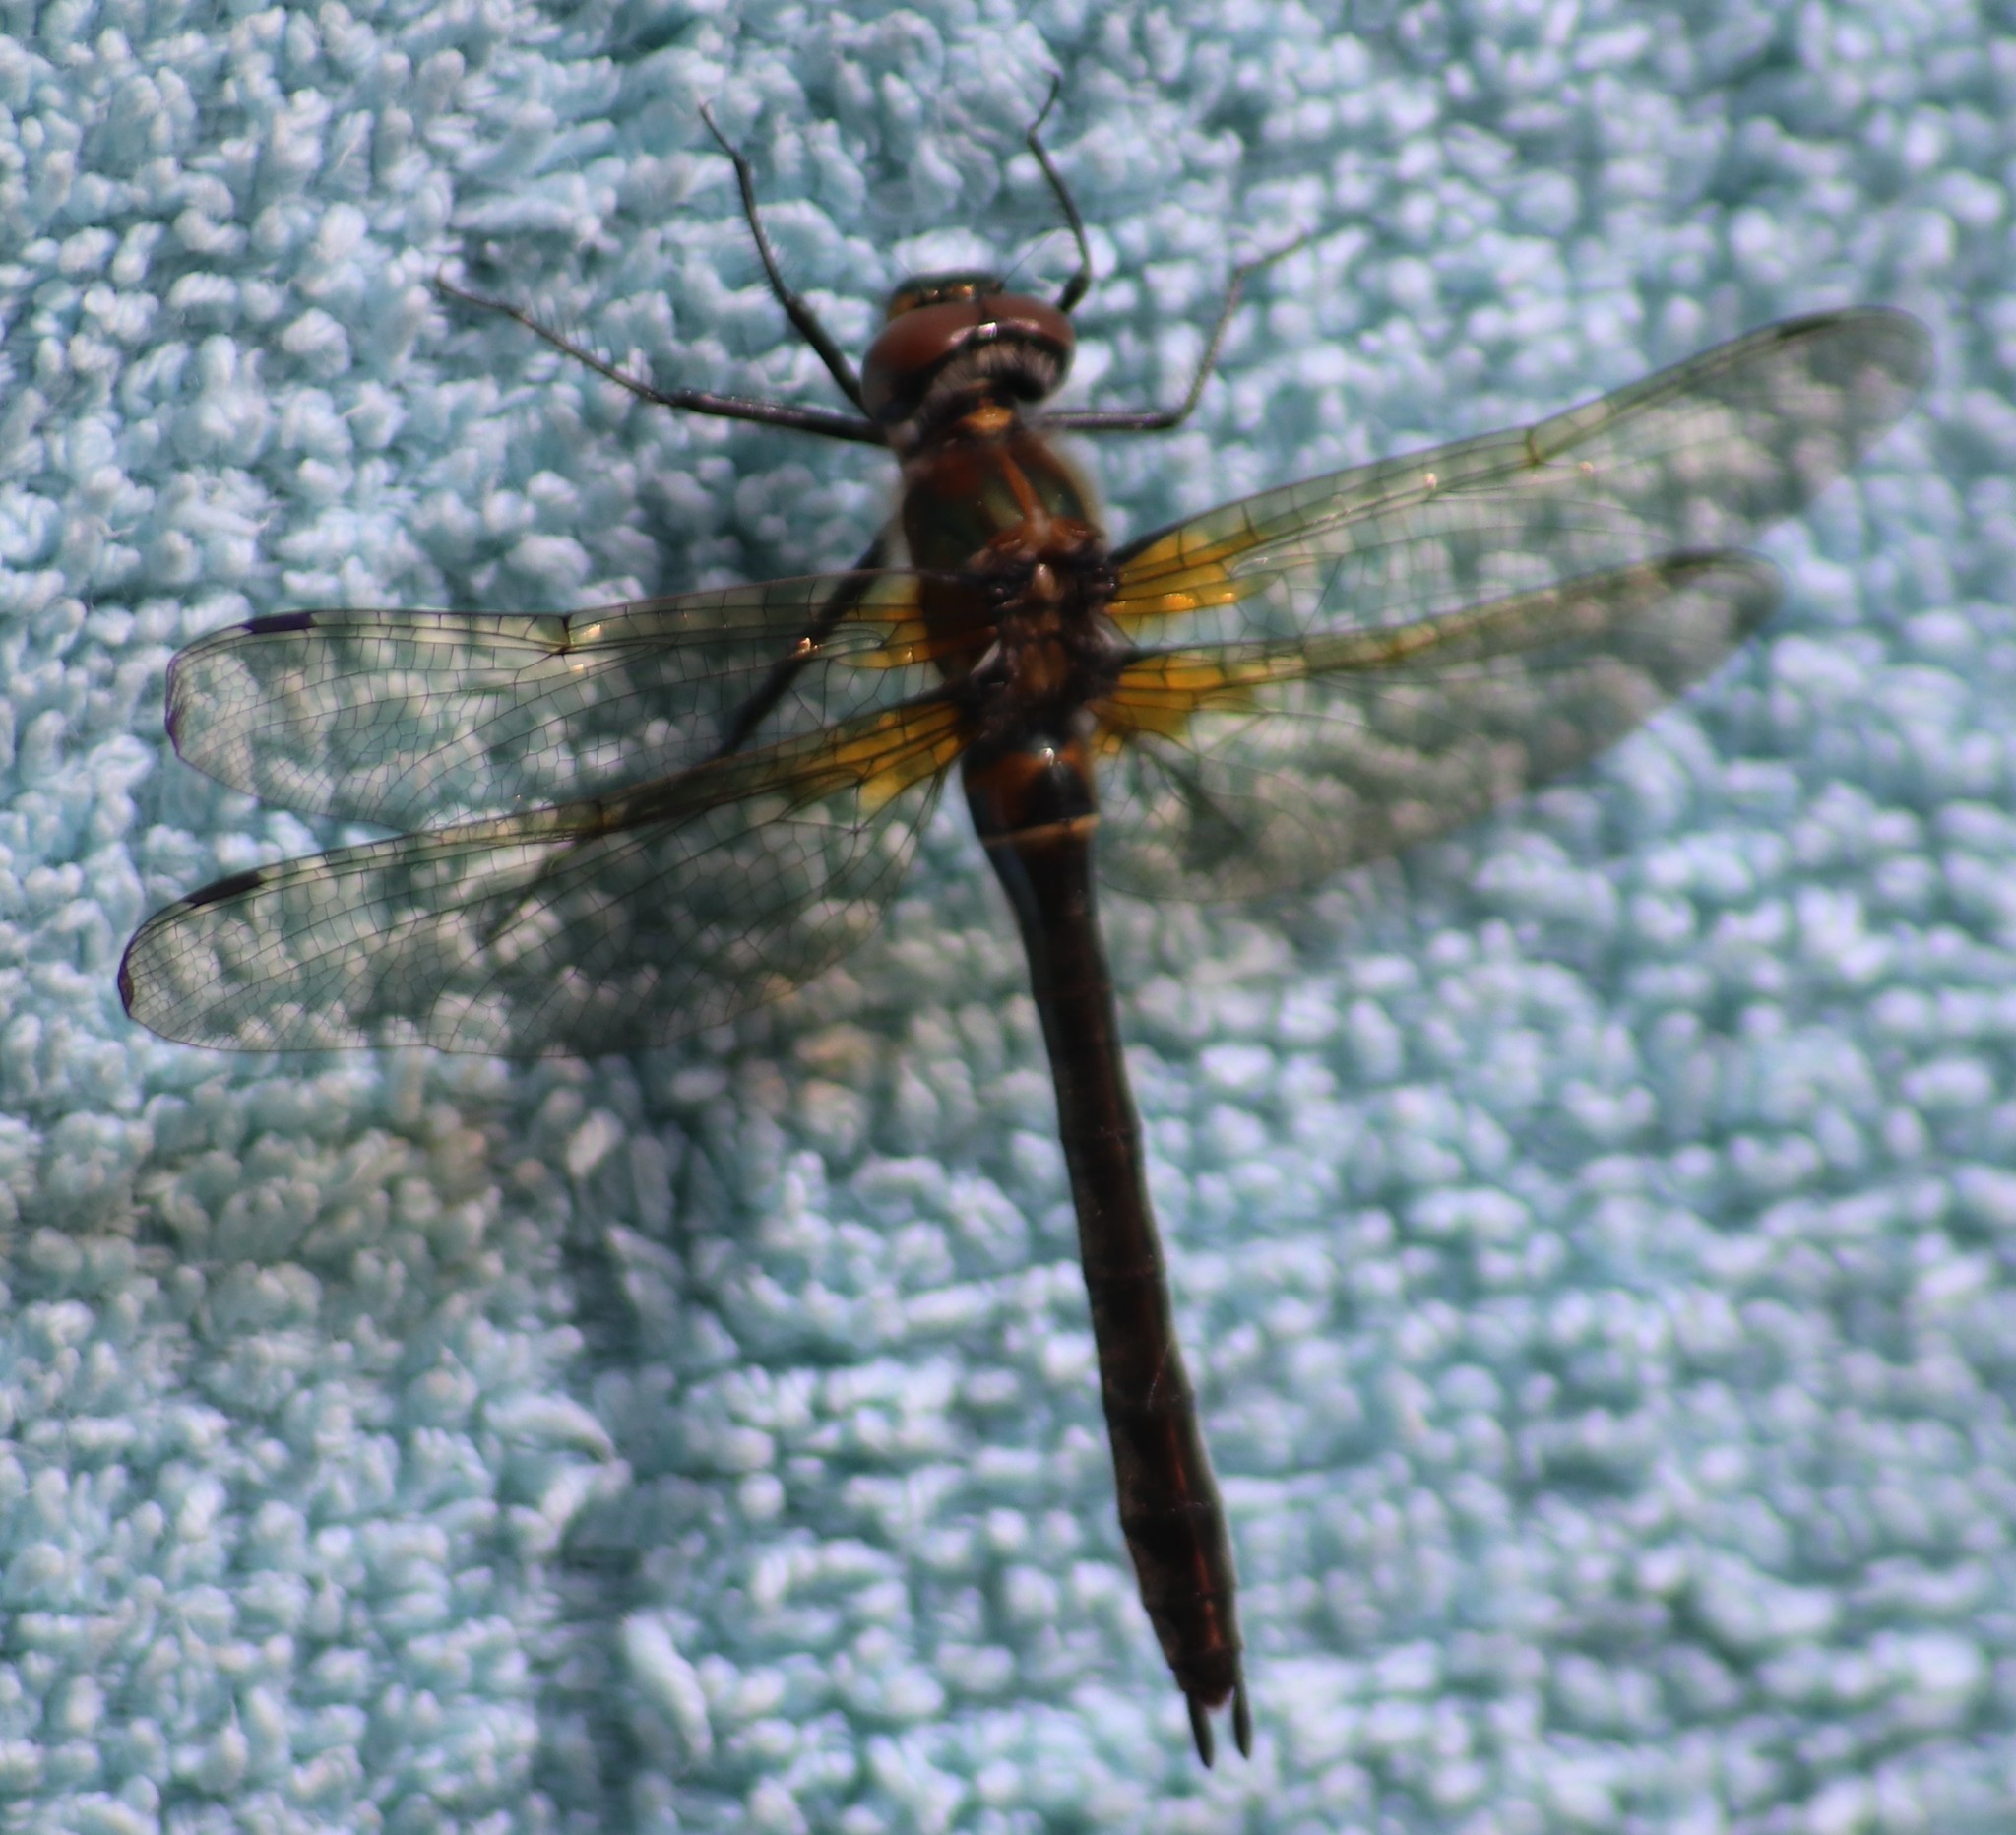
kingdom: Animalia
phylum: Arthropoda
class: Insecta
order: Odonata
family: Corduliidae
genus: Cordulia
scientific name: Cordulia shurtleffii
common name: American emerald
